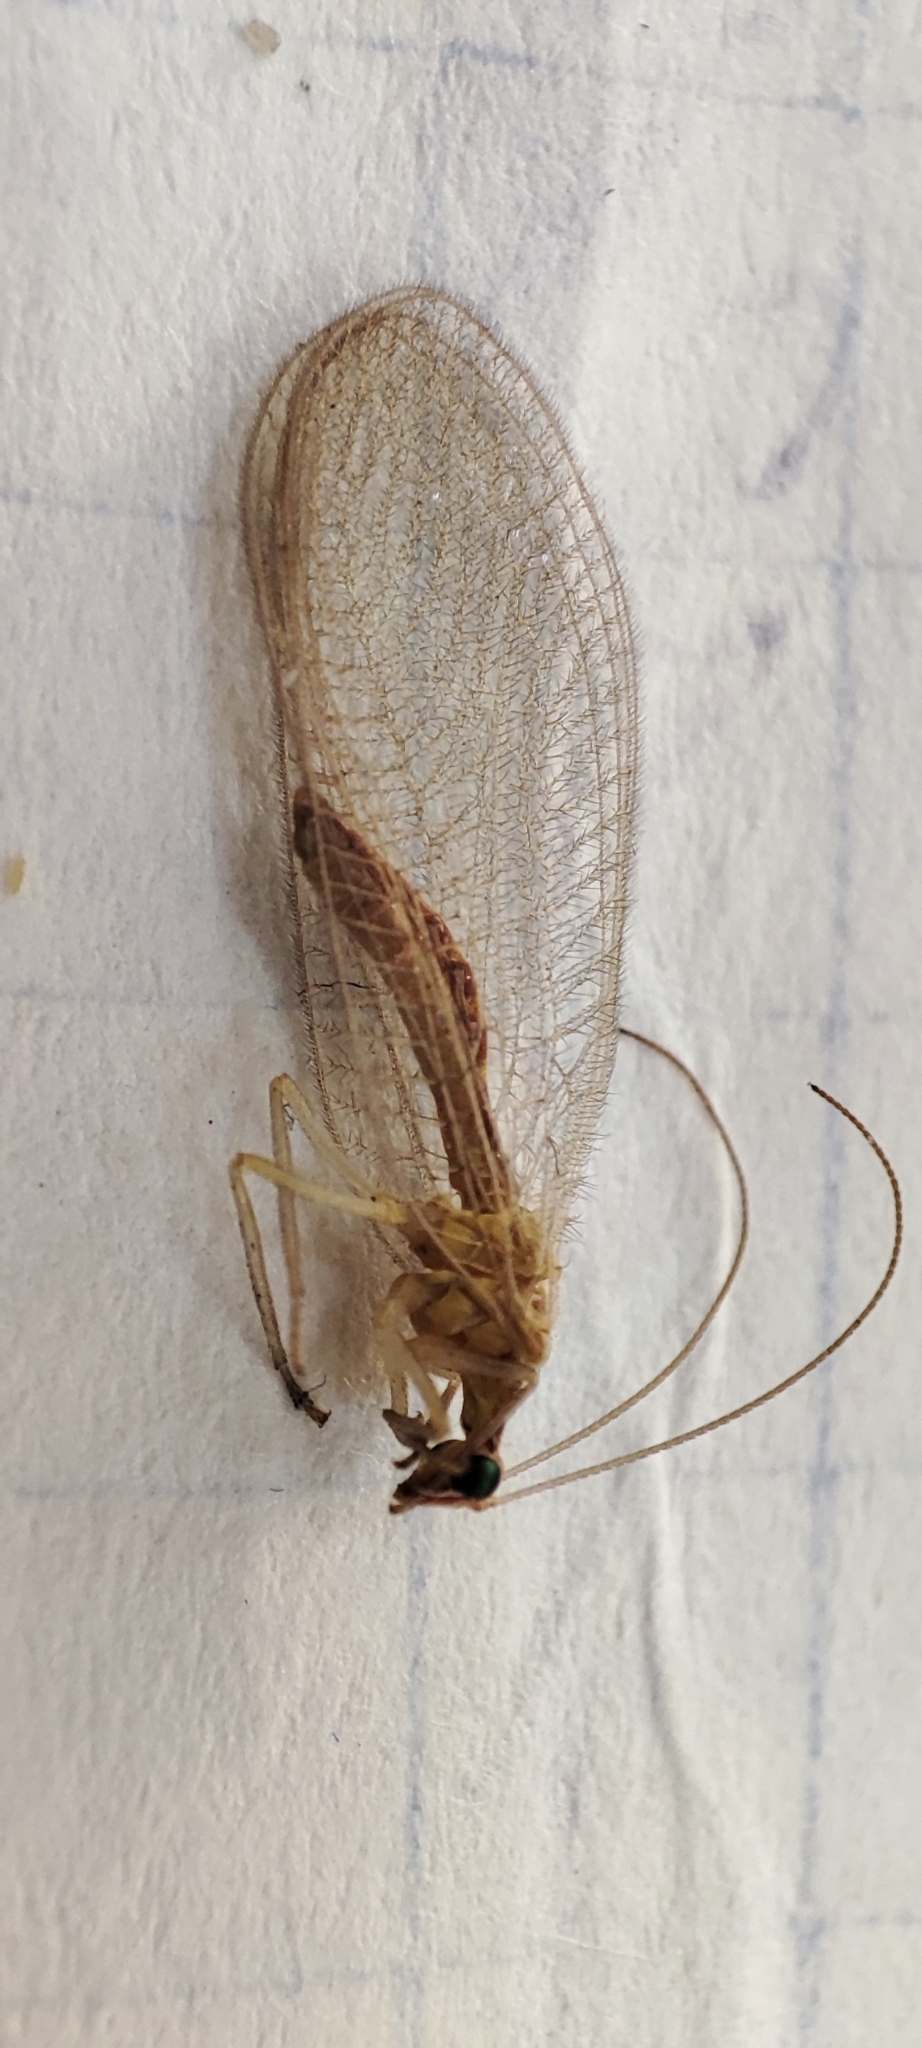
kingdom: Animalia
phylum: Arthropoda
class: Insecta
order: Neuroptera
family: Chrysopidae
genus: Chrysoperla
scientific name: Chrysoperla
